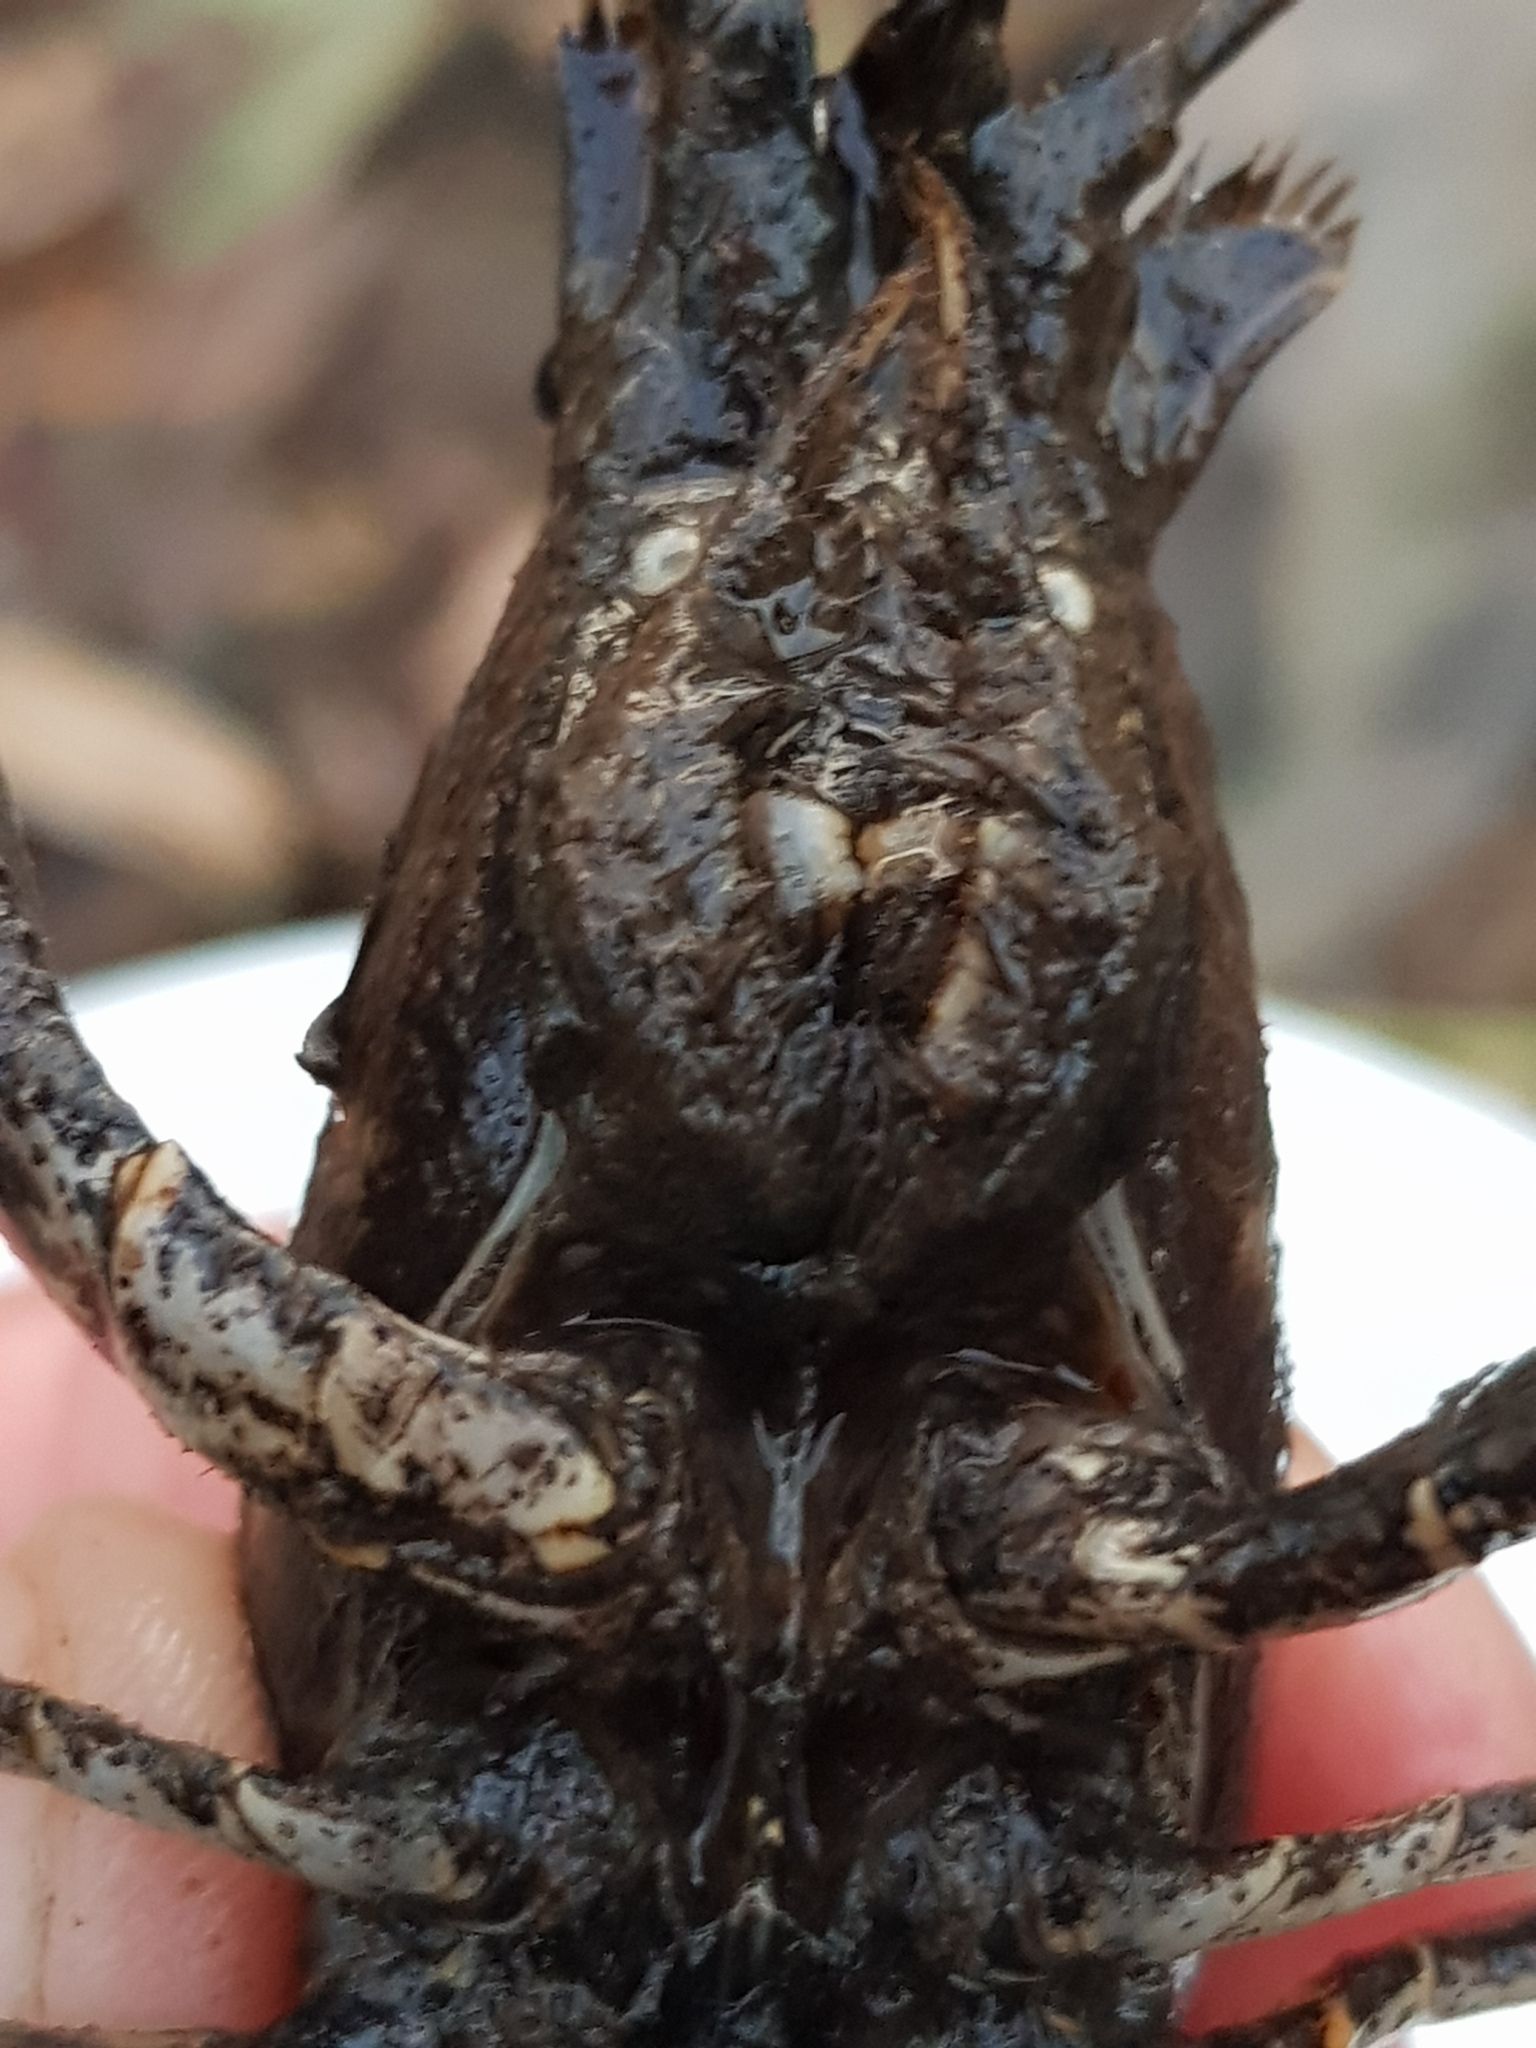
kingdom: Animalia
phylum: Arthropoda
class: Malacostraca
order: Decapoda
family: Cambaridae
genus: Faxonius
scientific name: Faxonius virilis
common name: Virile crayfish
